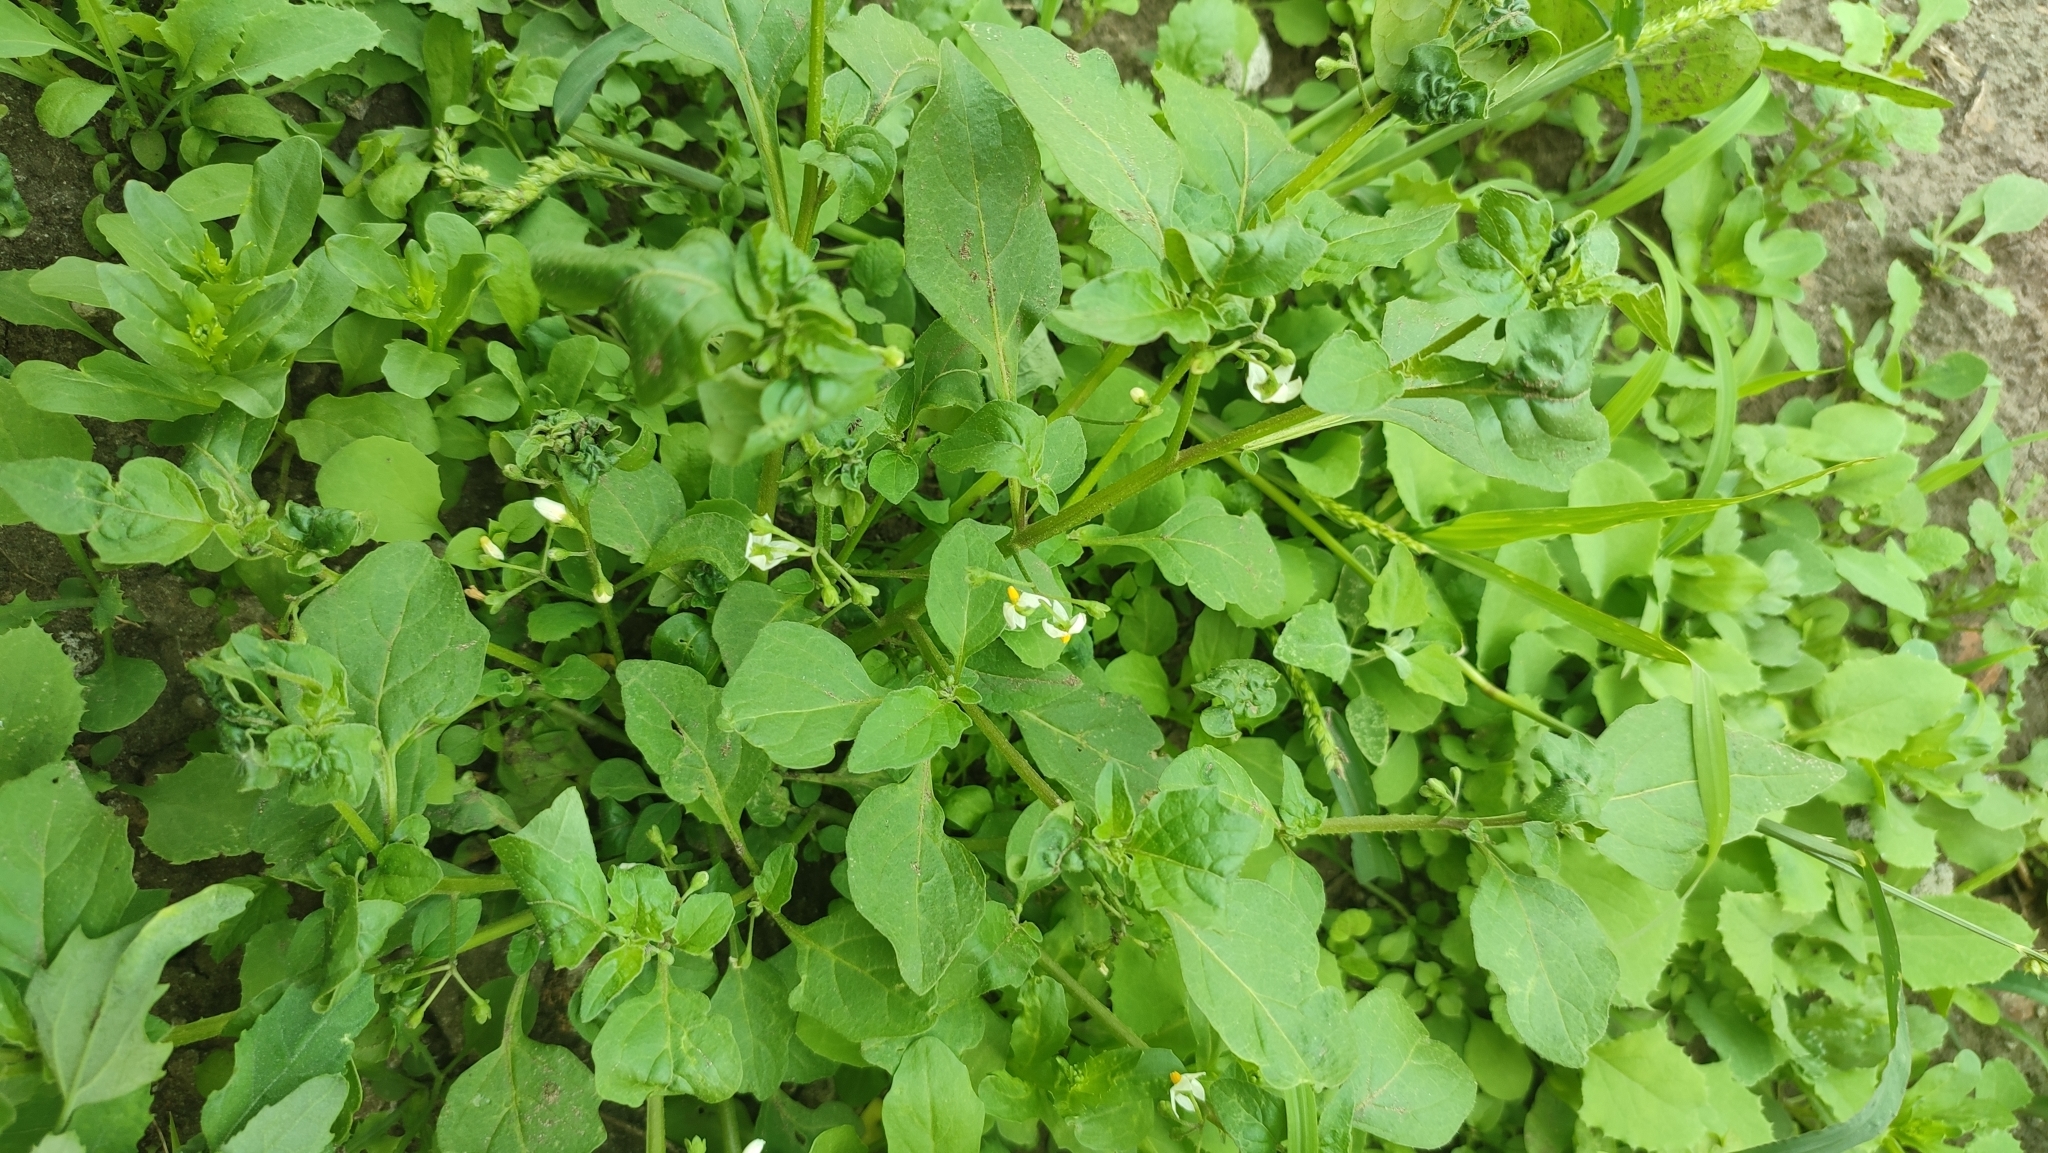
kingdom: Plantae
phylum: Tracheophyta
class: Magnoliopsida
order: Solanales
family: Solanaceae
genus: Solanum
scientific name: Solanum nigrum
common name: Black nightshade
